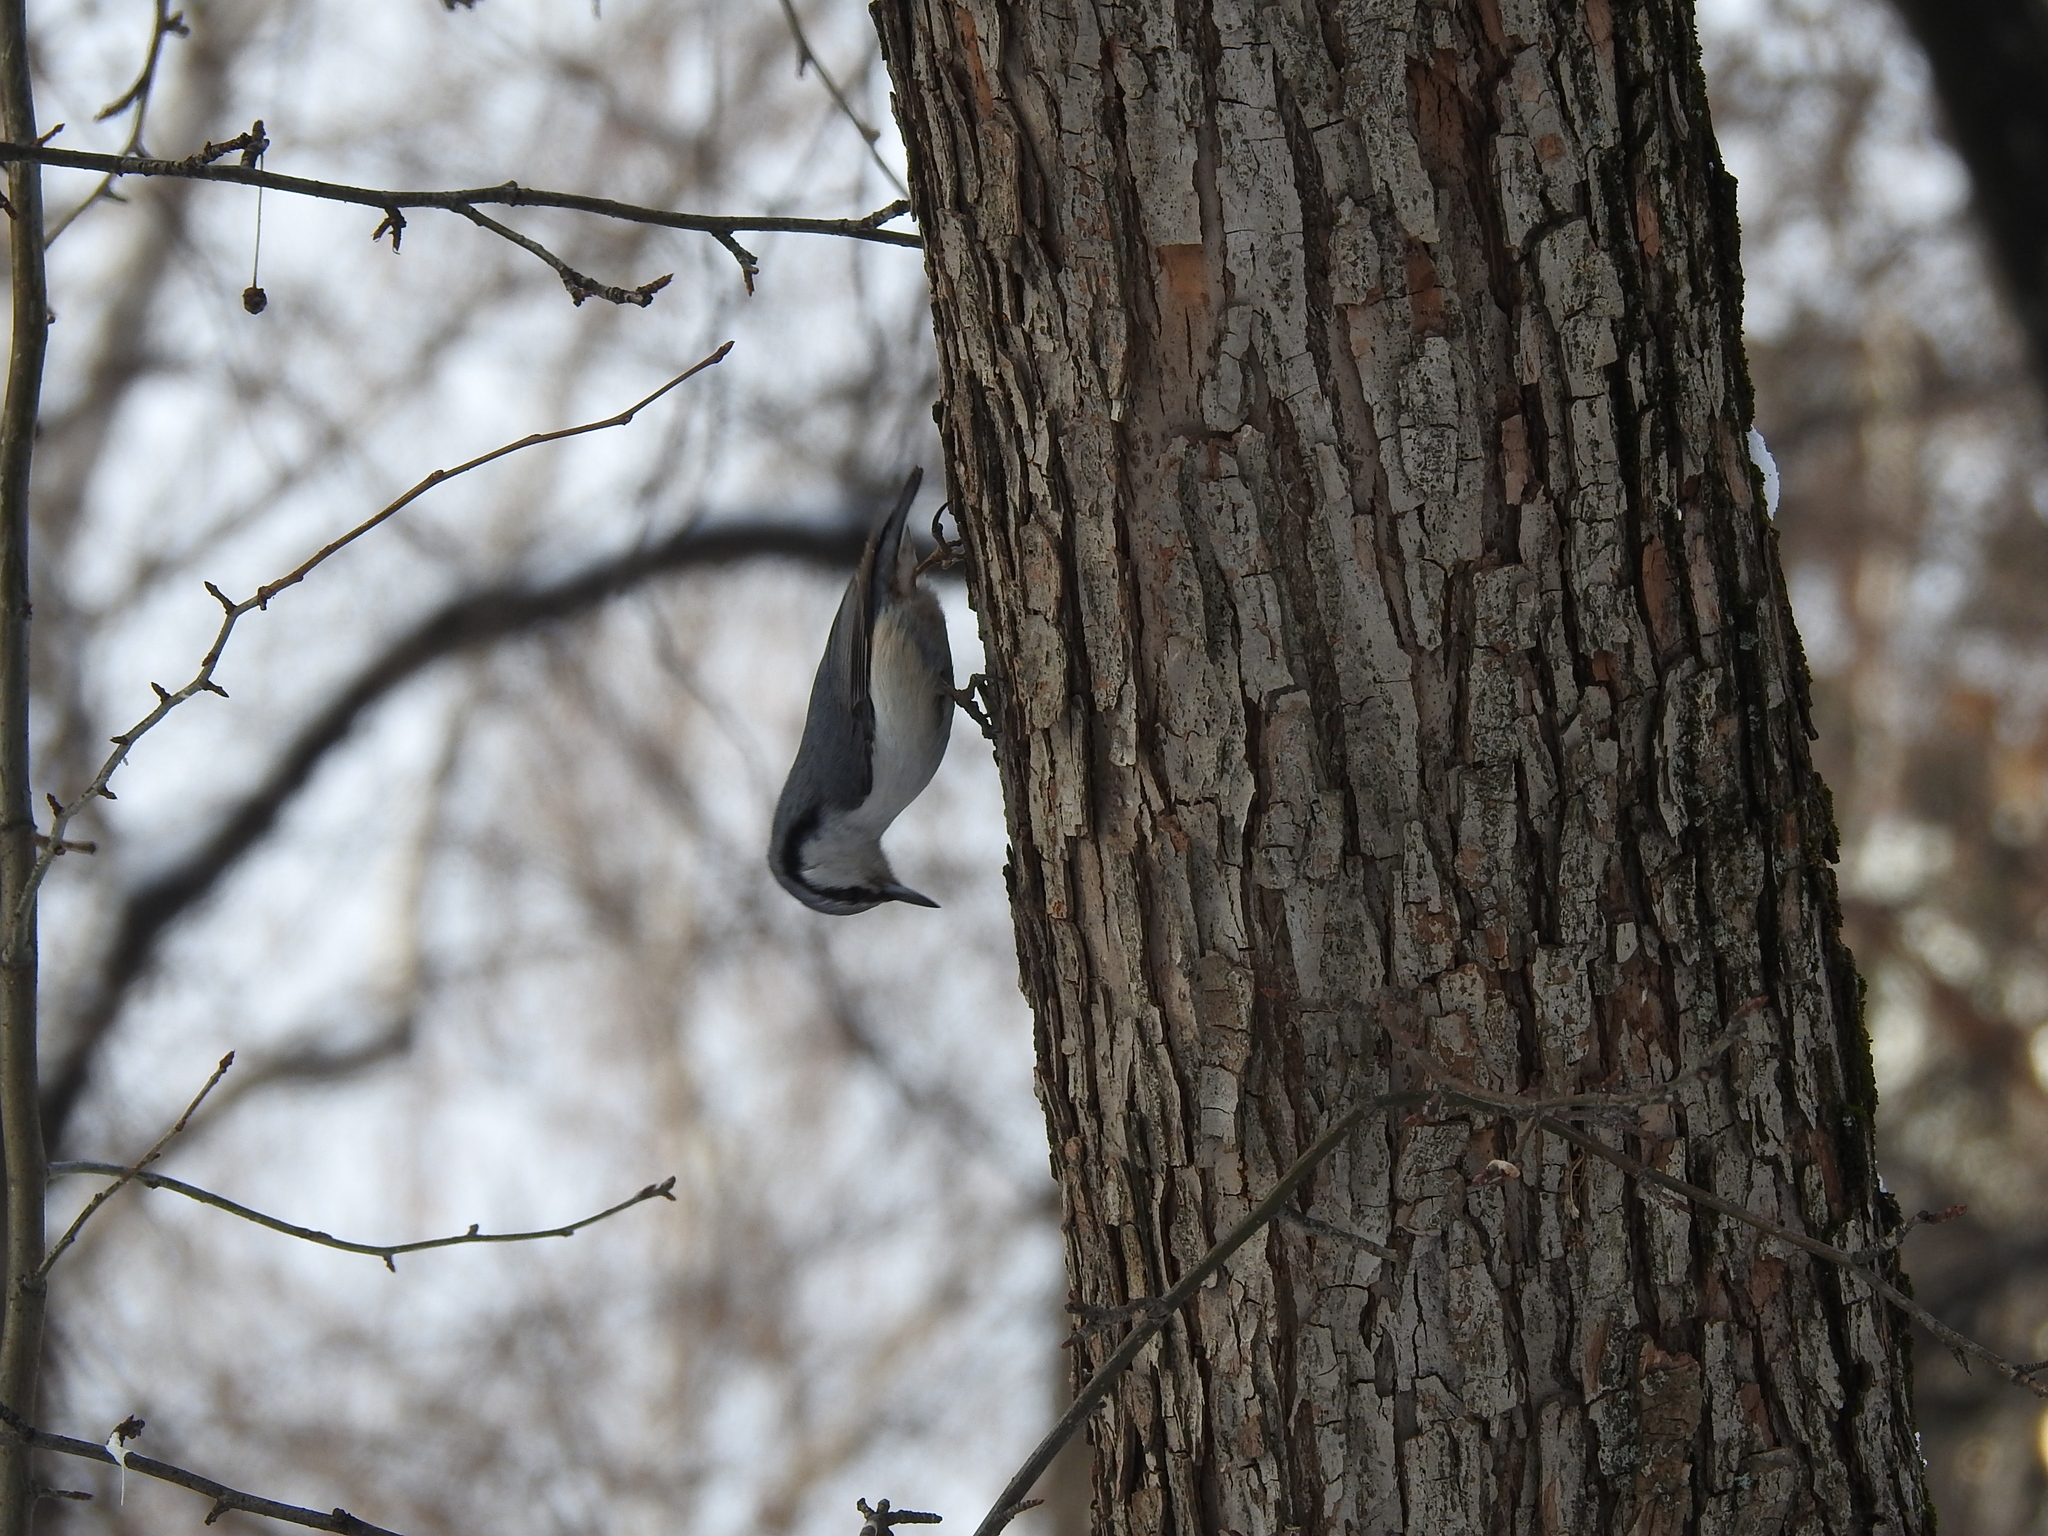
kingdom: Animalia
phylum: Chordata
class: Aves
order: Passeriformes
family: Sittidae
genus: Sitta
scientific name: Sitta europaea
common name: Eurasian nuthatch
